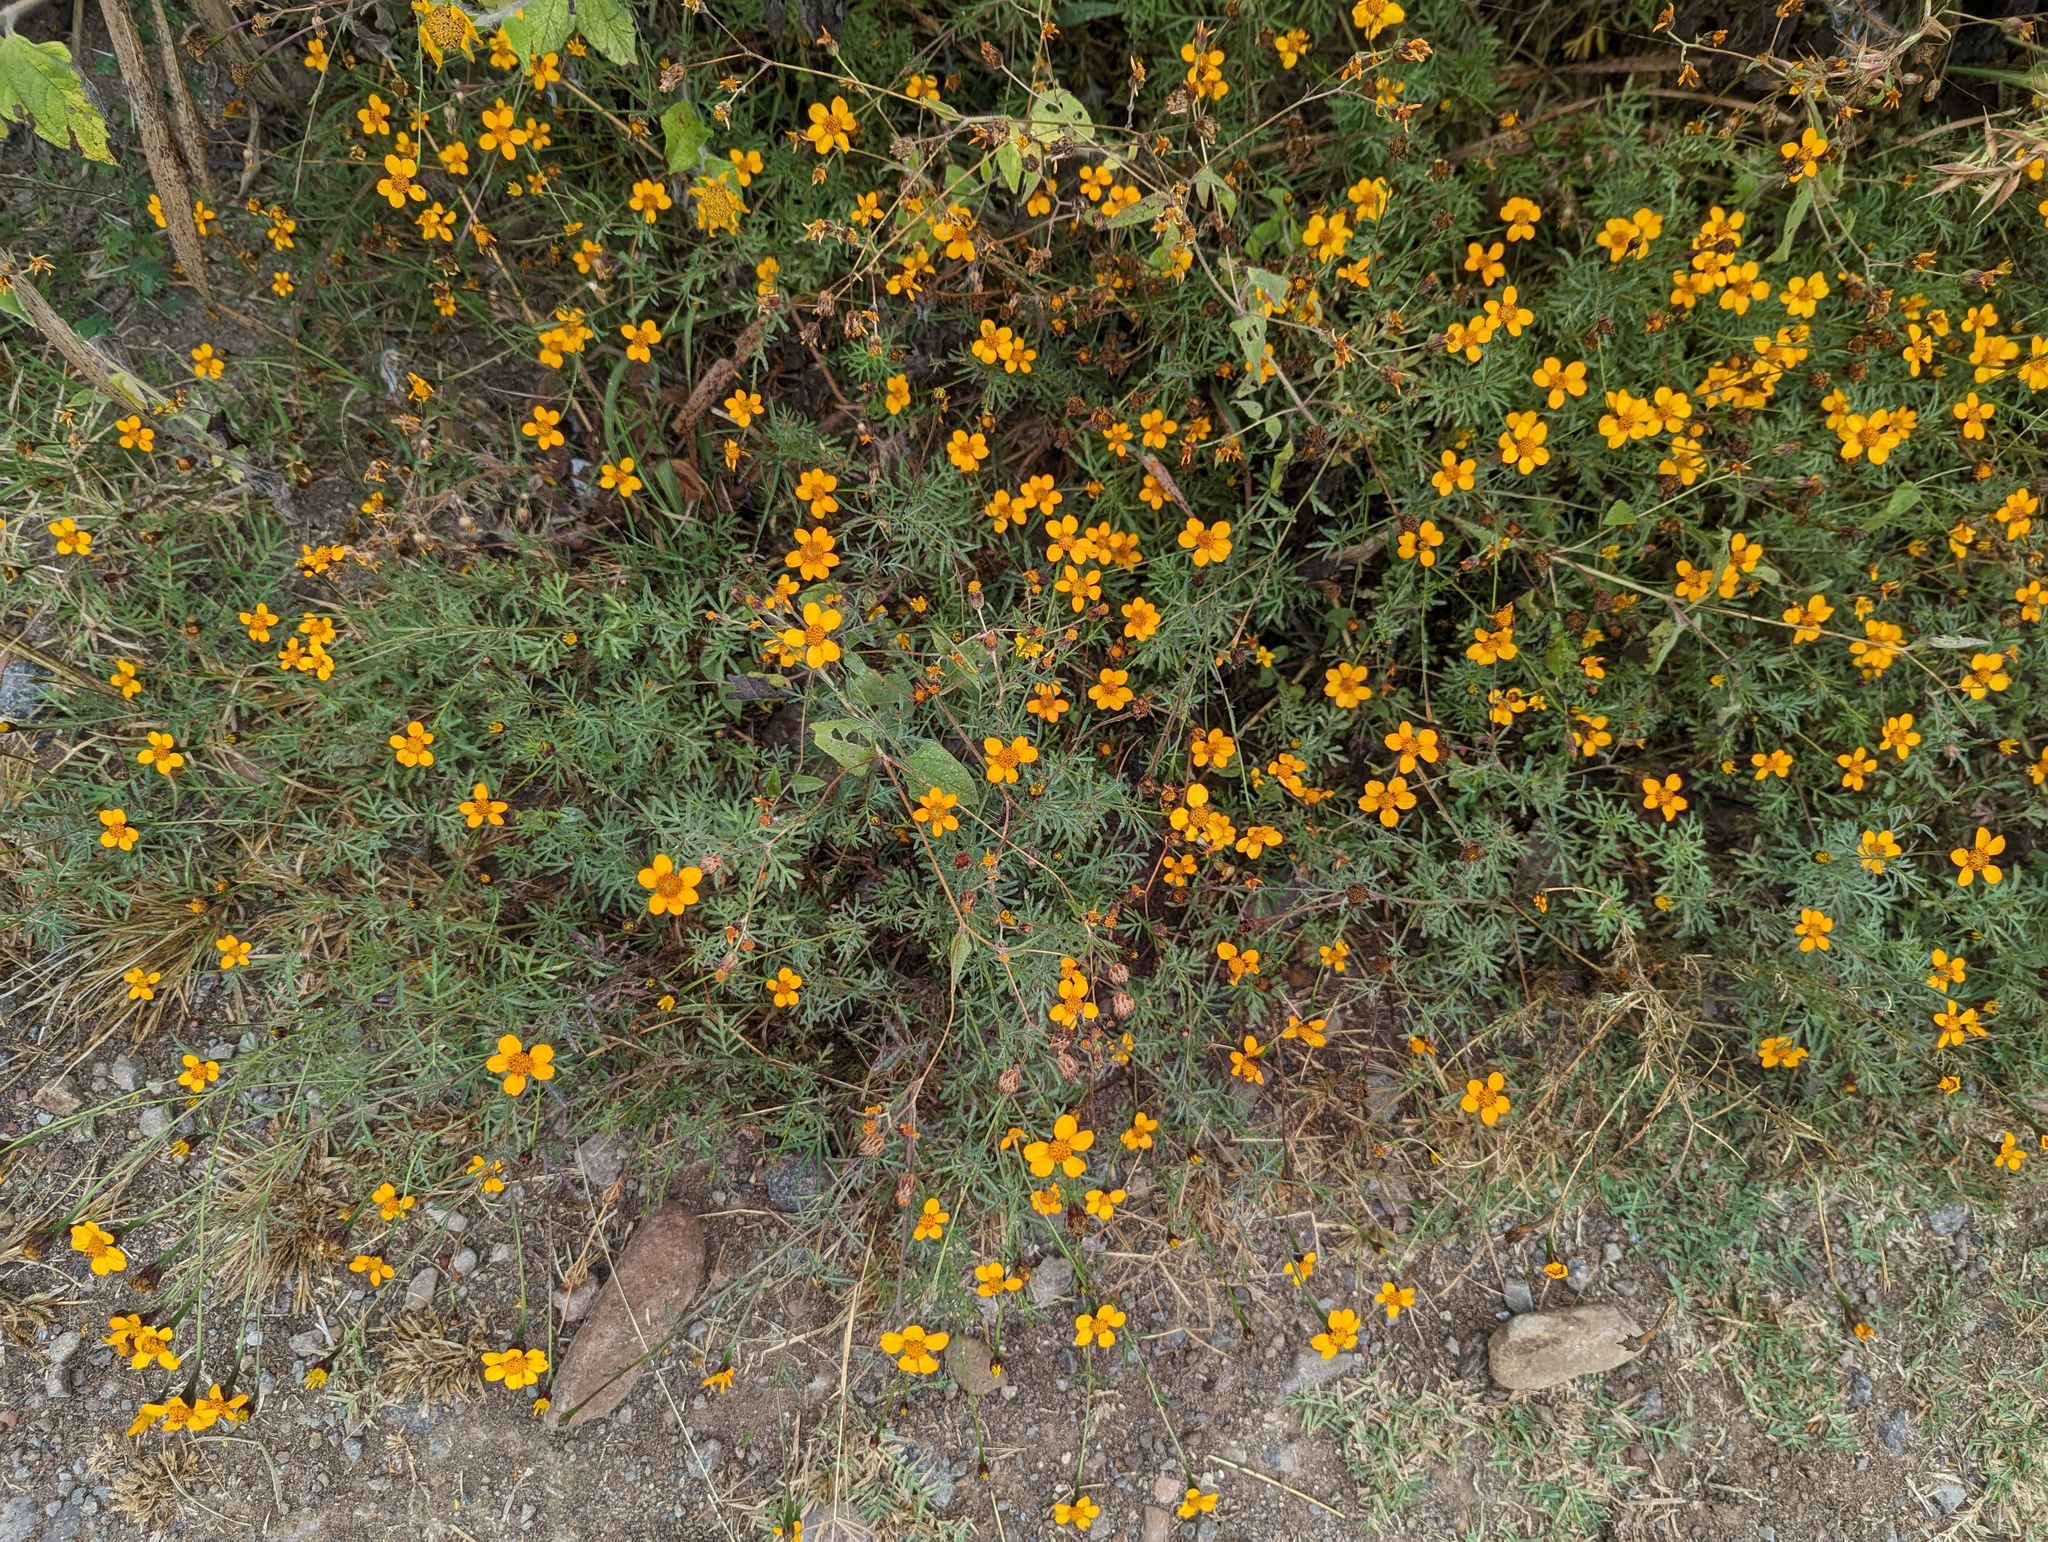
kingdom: Plantae
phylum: Tracheophyta
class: Magnoliopsida
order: Asterales
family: Asteraceae
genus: Dyssodia
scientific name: Dyssodia tagetiflora
